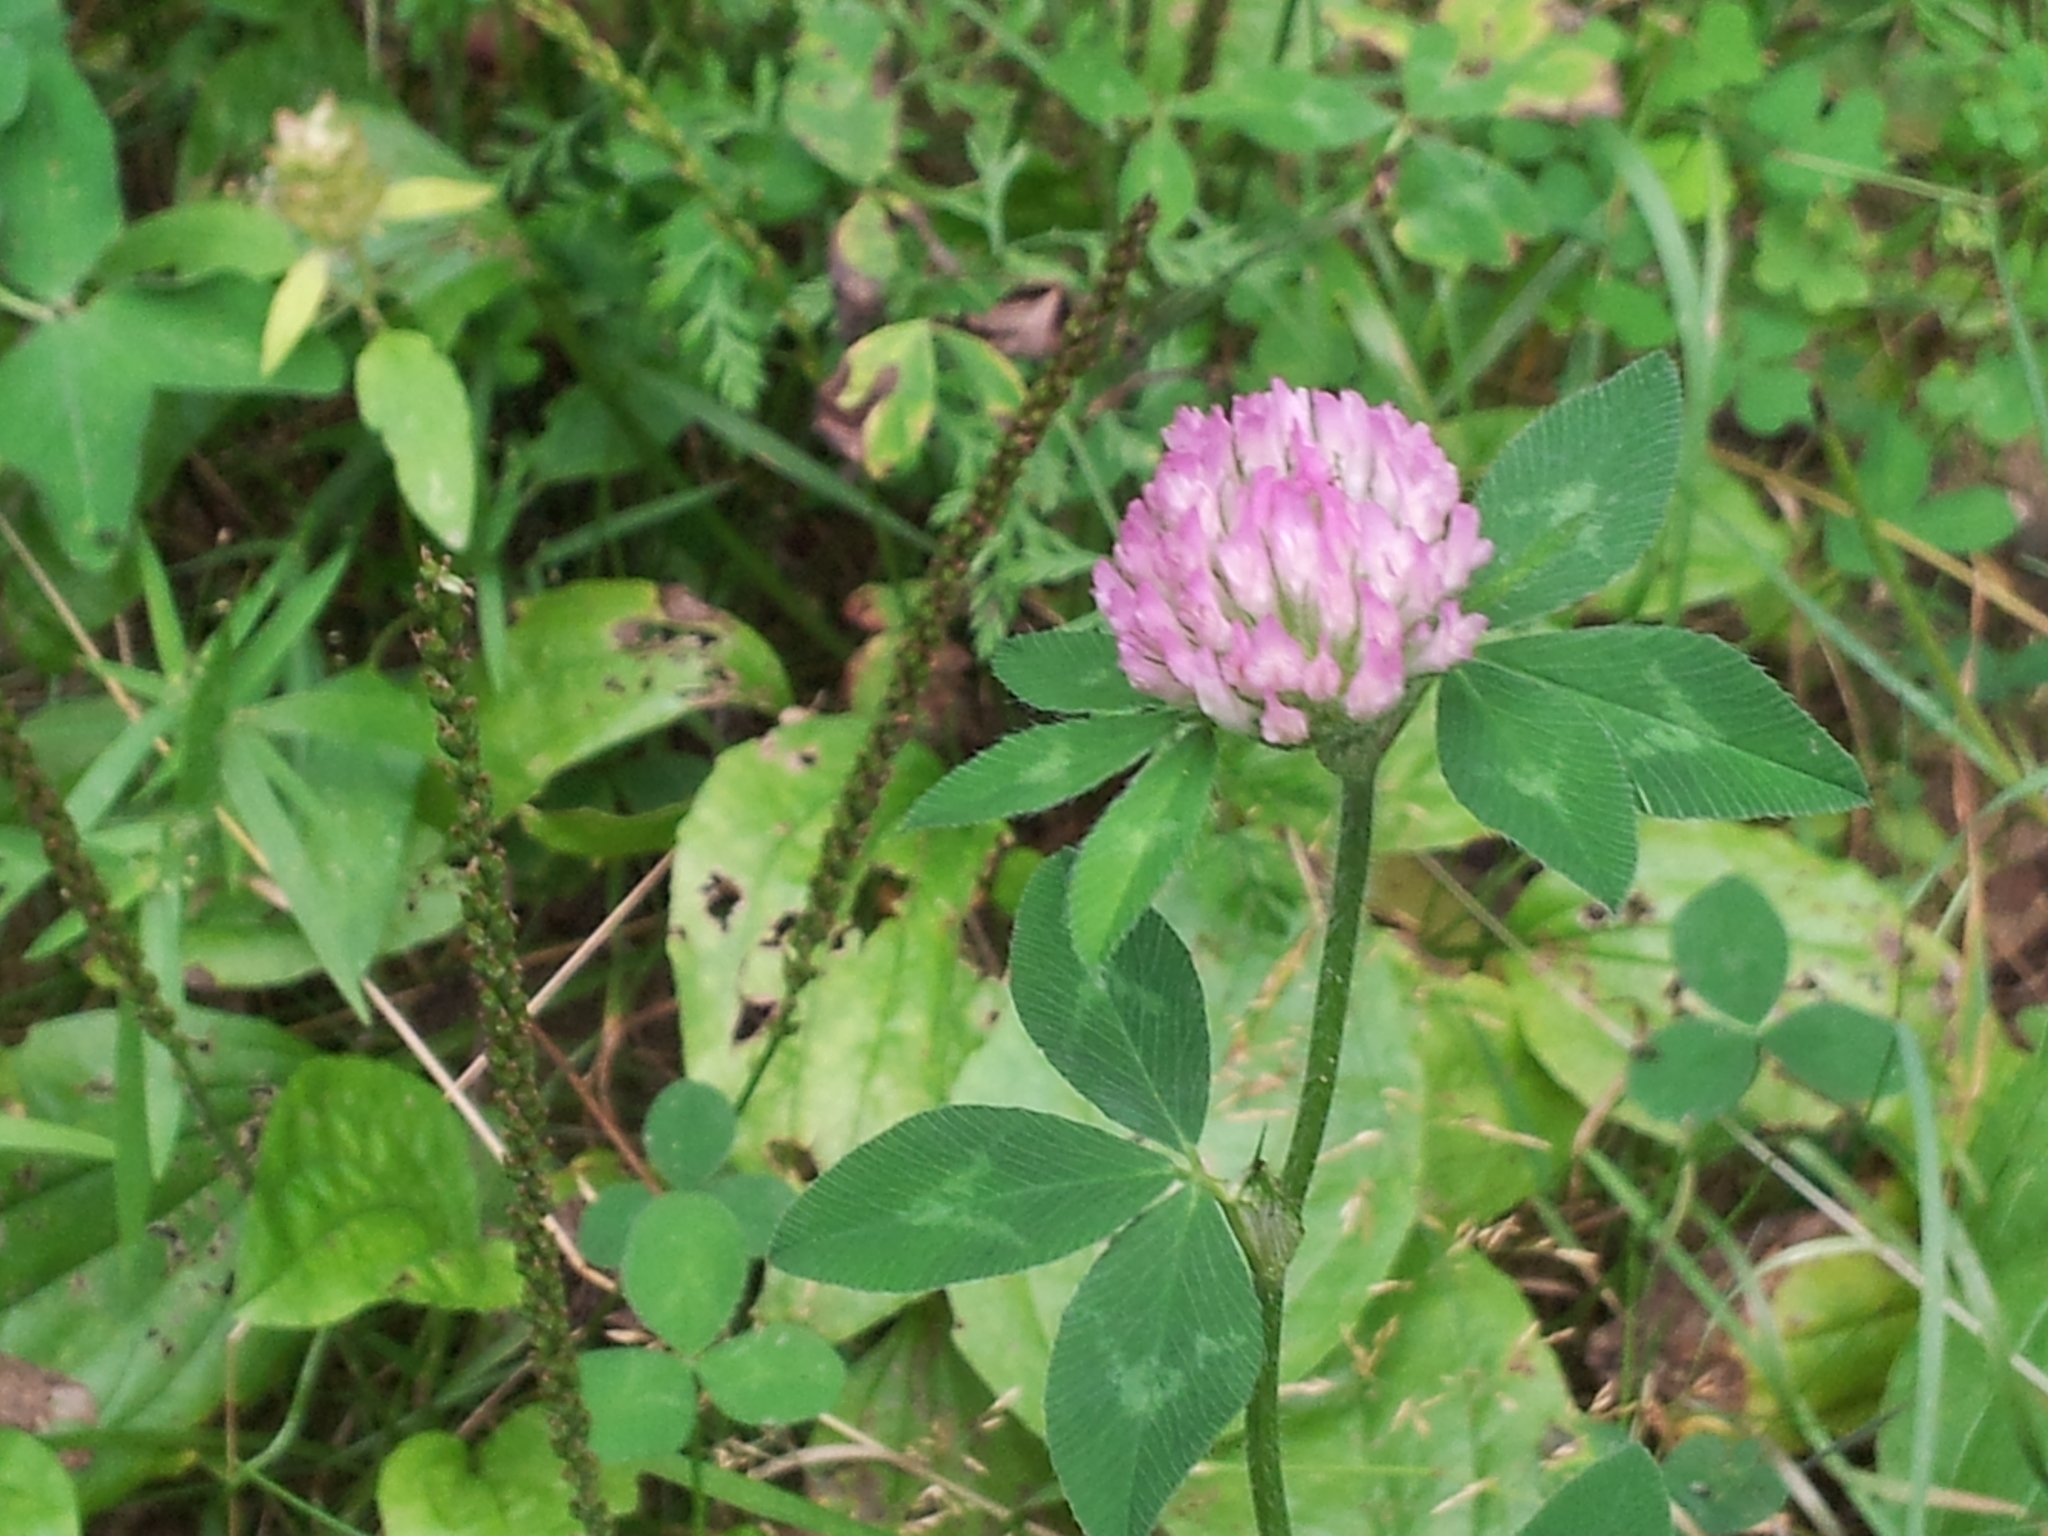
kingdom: Plantae
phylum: Tracheophyta
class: Magnoliopsida
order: Fabales
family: Fabaceae
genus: Trifolium
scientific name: Trifolium pratense
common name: Red clover
